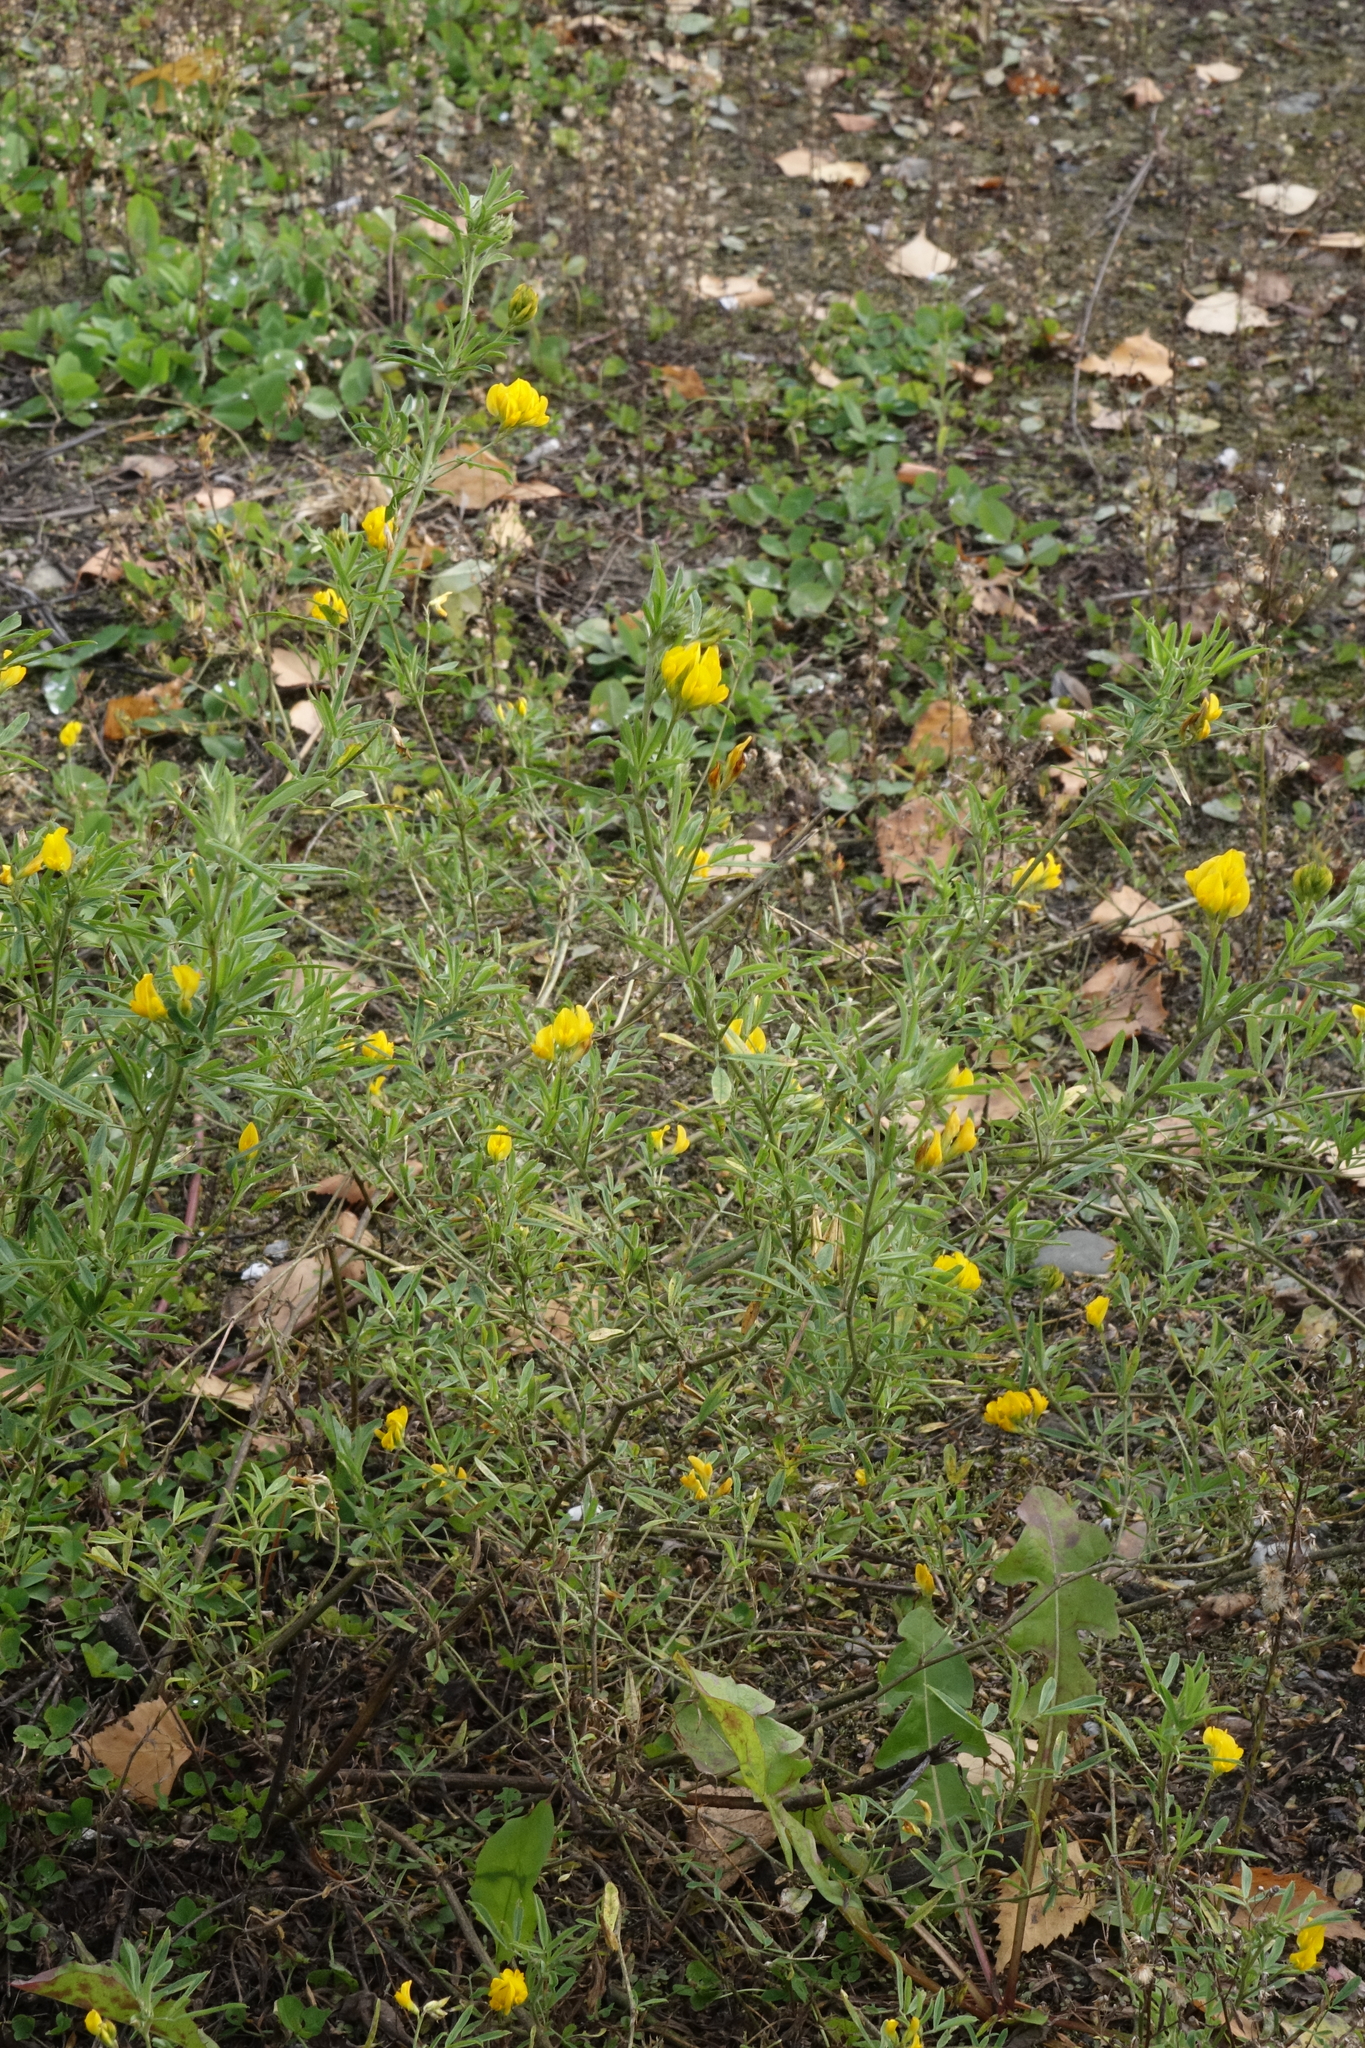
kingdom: Plantae
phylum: Tracheophyta
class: Magnoliopsida
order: Fabales
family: Fabaceae
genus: Medicago
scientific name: Medicago falcata
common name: Sickle medick
